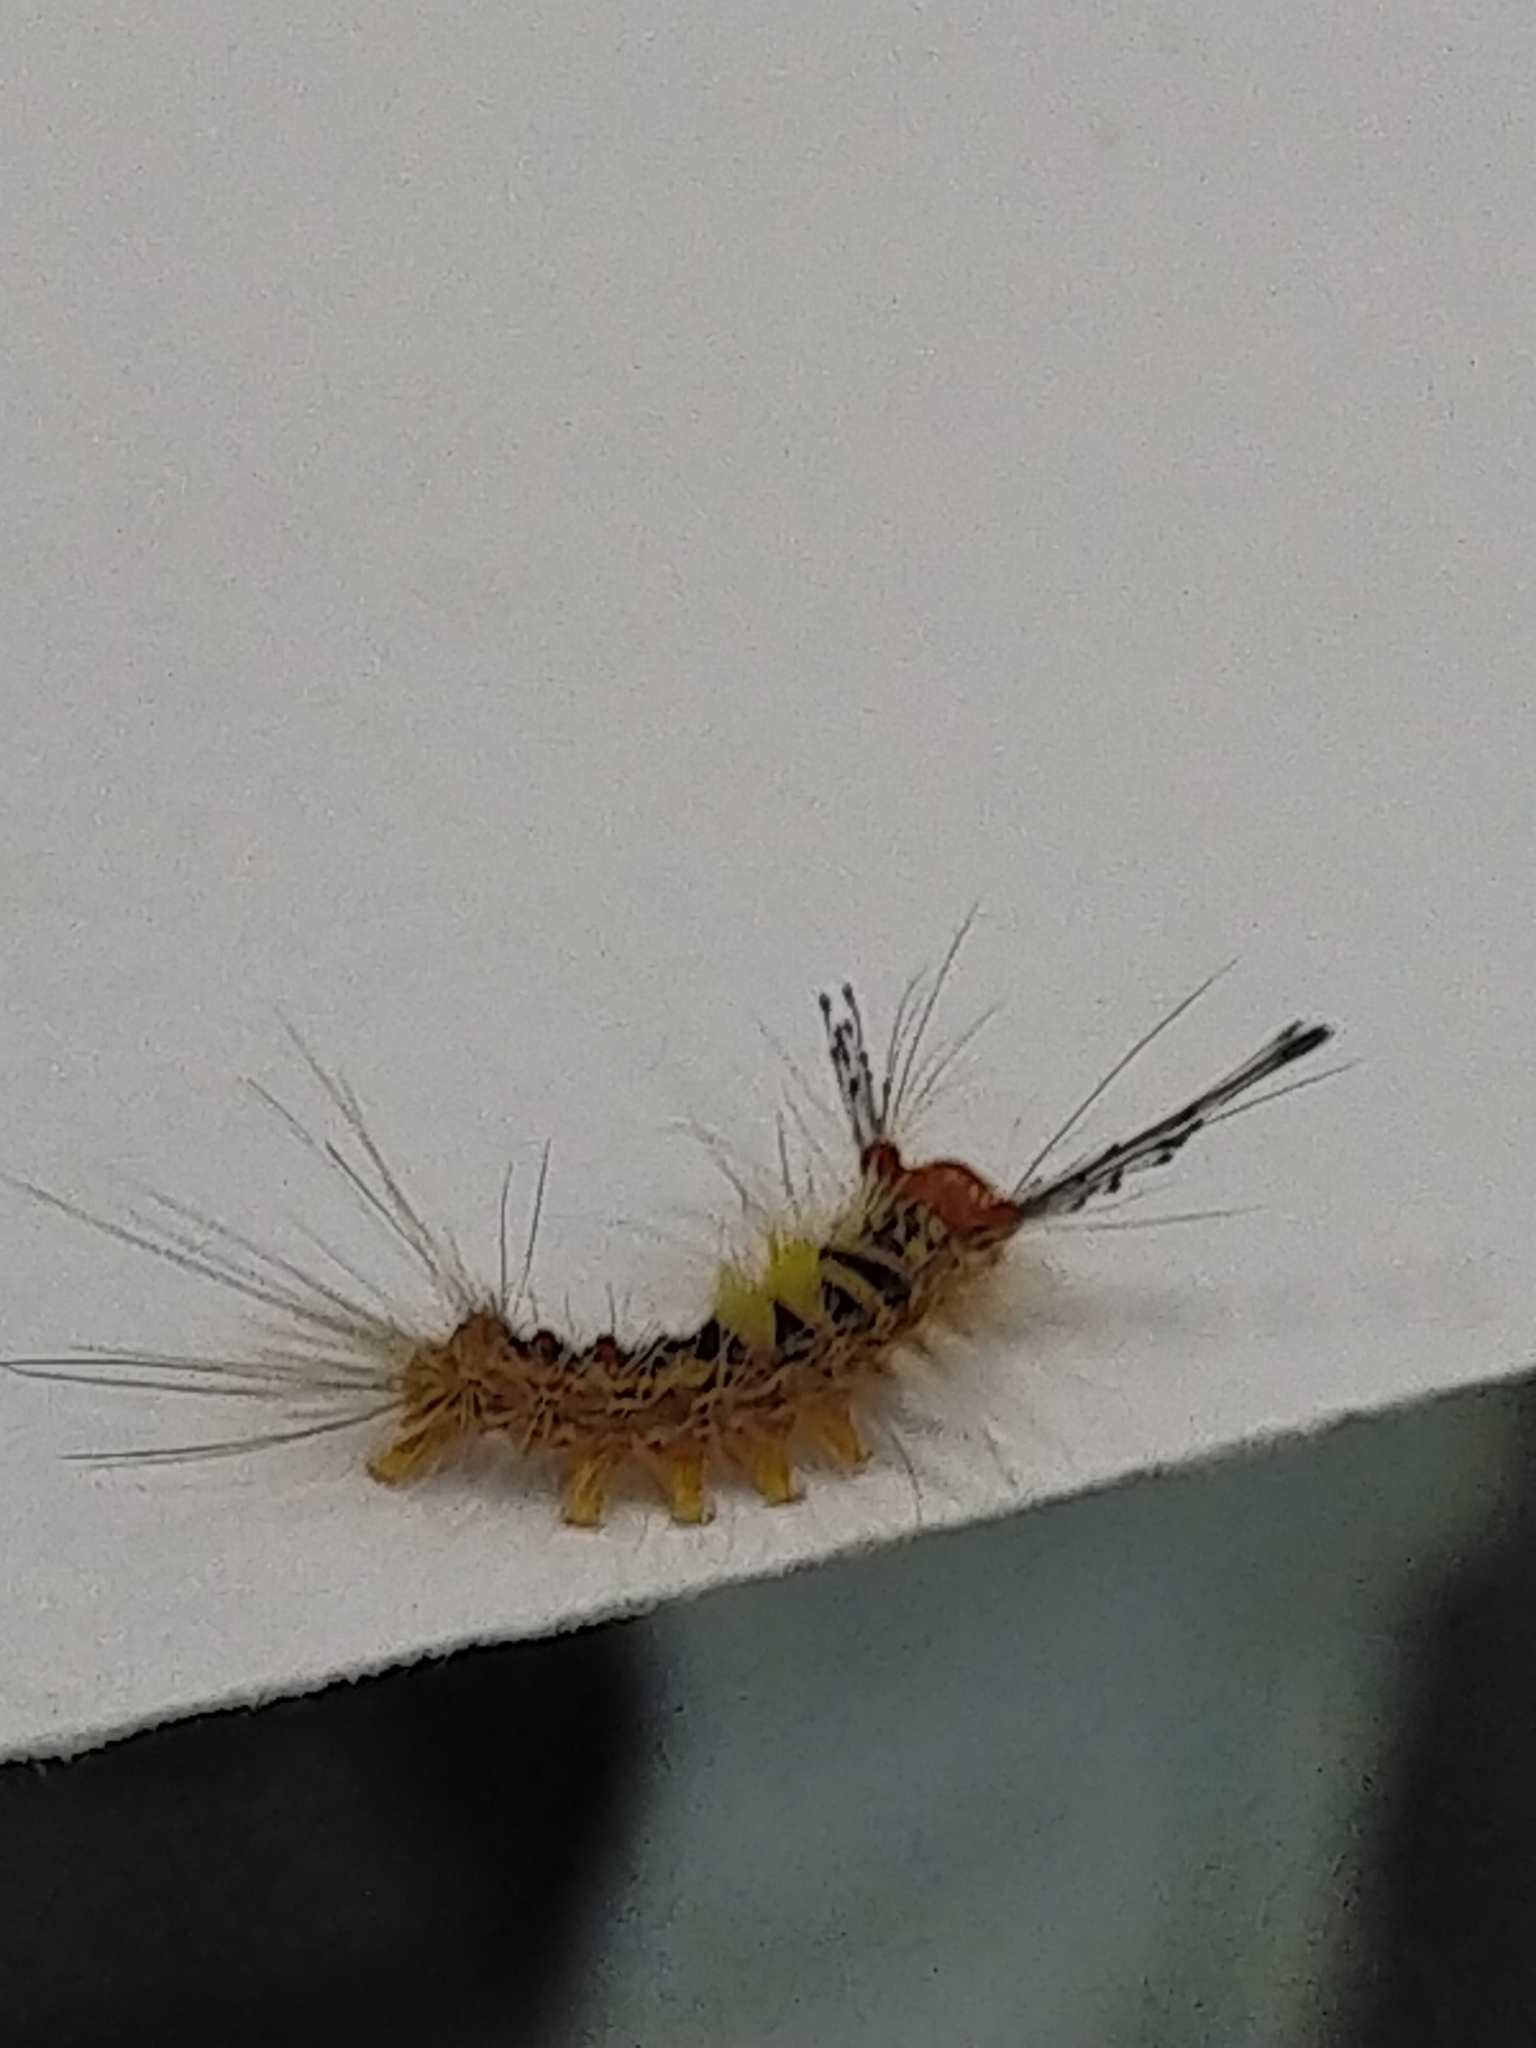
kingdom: Animalia
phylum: Arthropoda
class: Insecta
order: Lepidoptera
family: Erebidae
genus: Orgyia
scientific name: Orgyia postica
